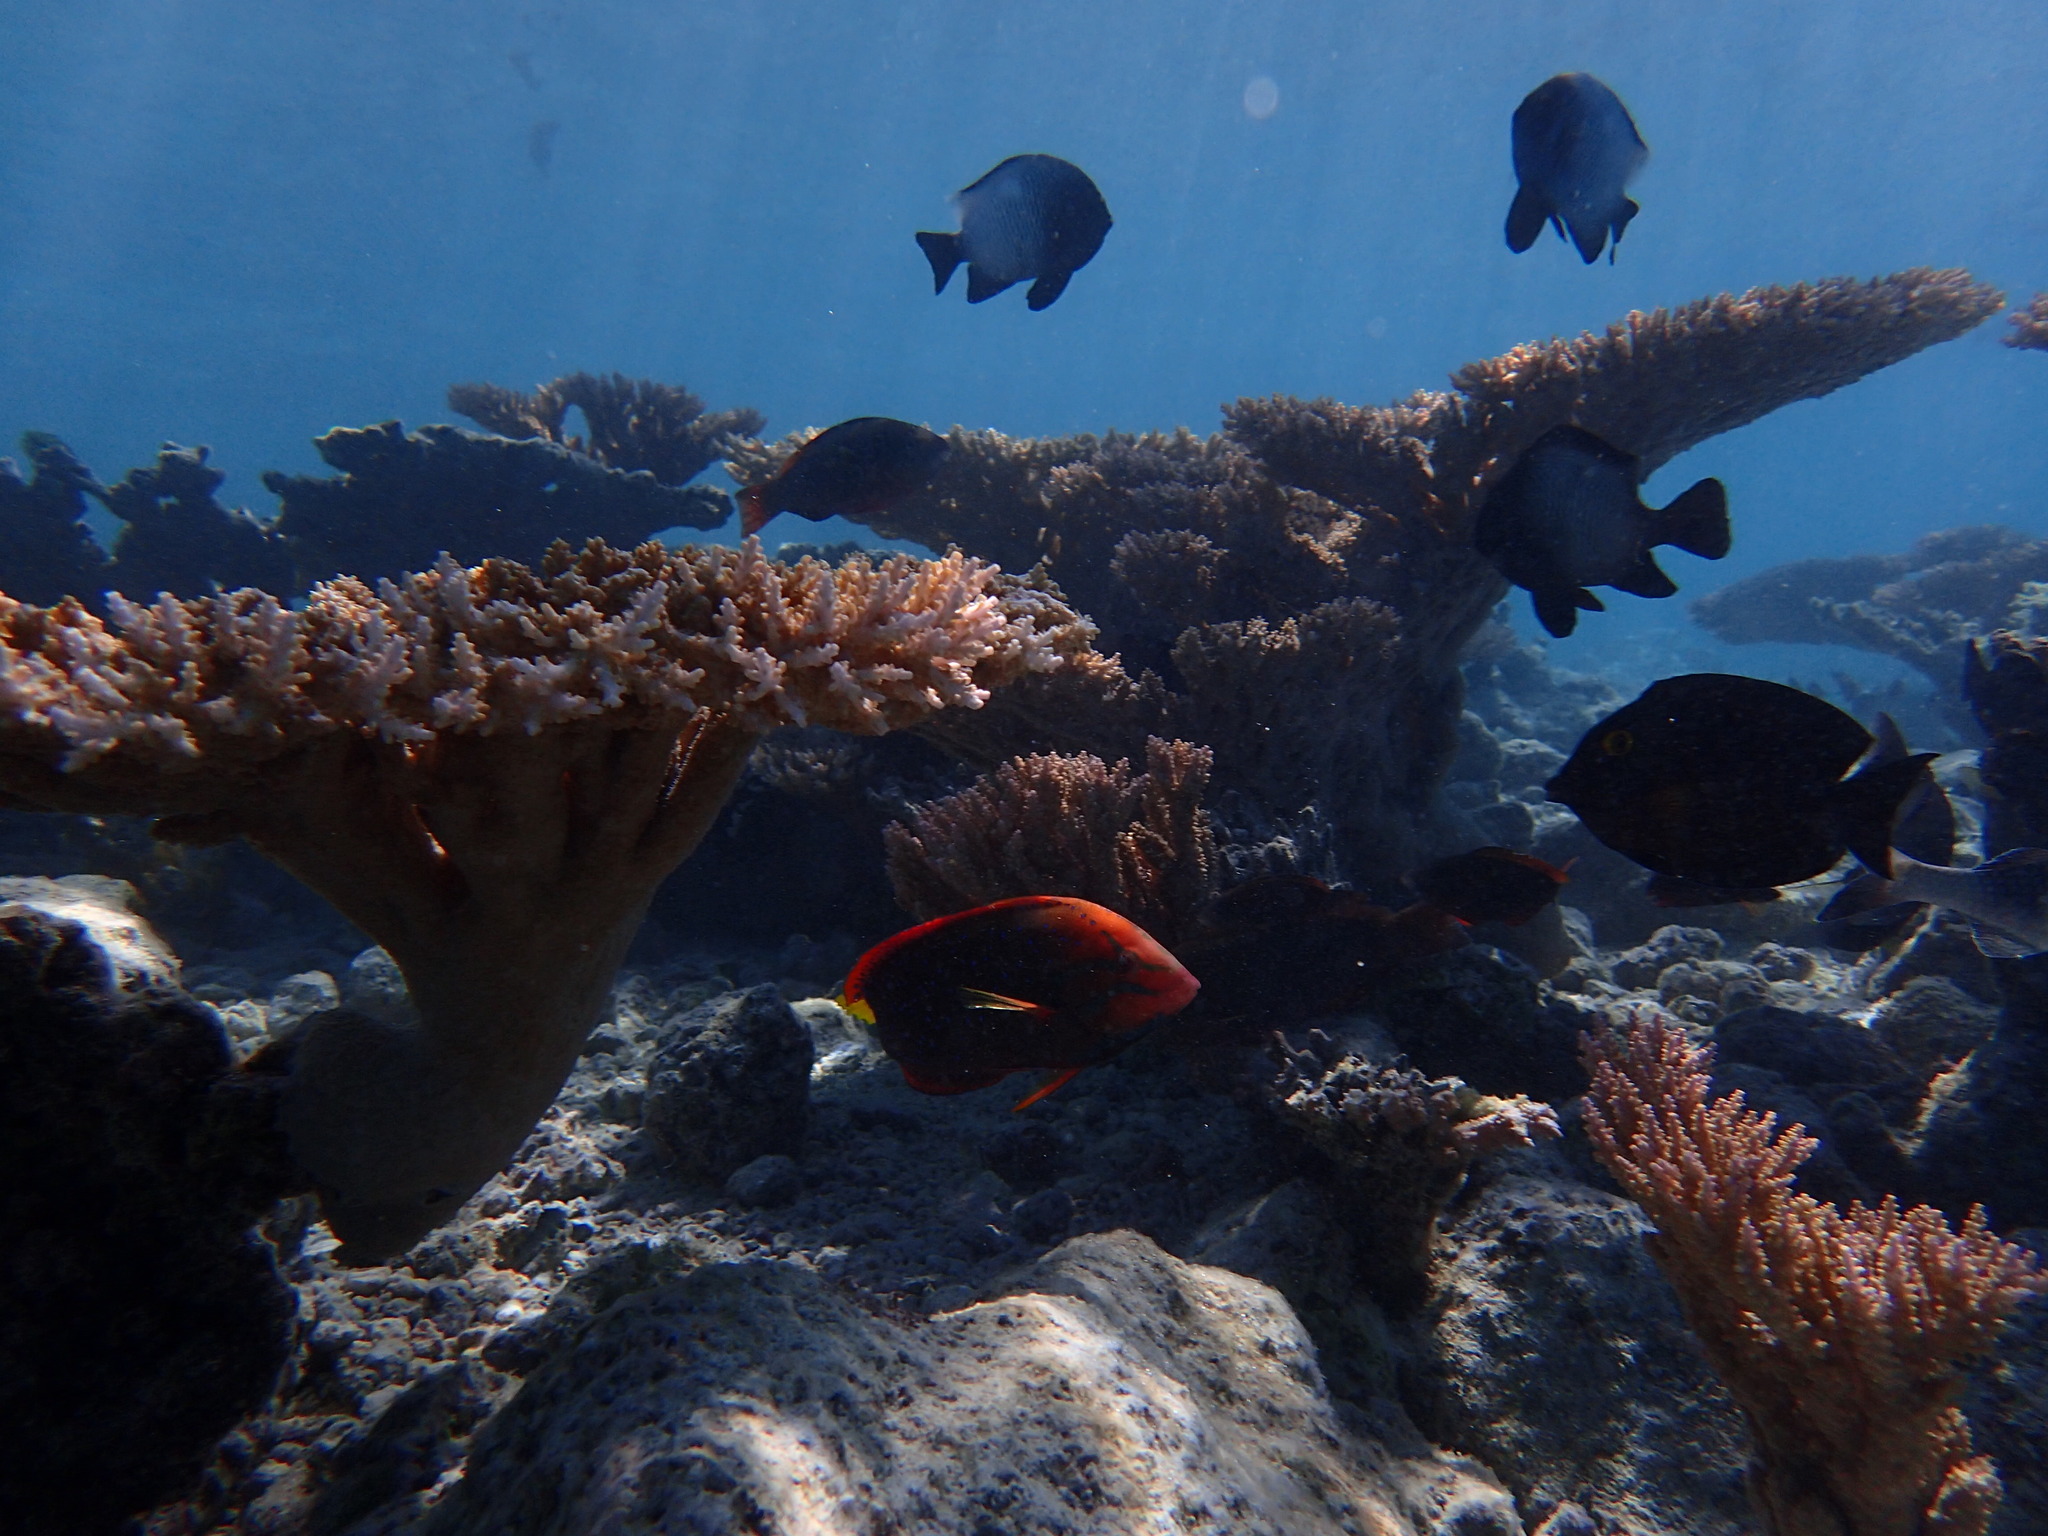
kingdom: Animalia
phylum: Chordata
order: Perciformes
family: Labridae
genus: Coris
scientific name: Coris gaimard
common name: Yellowtail coris
